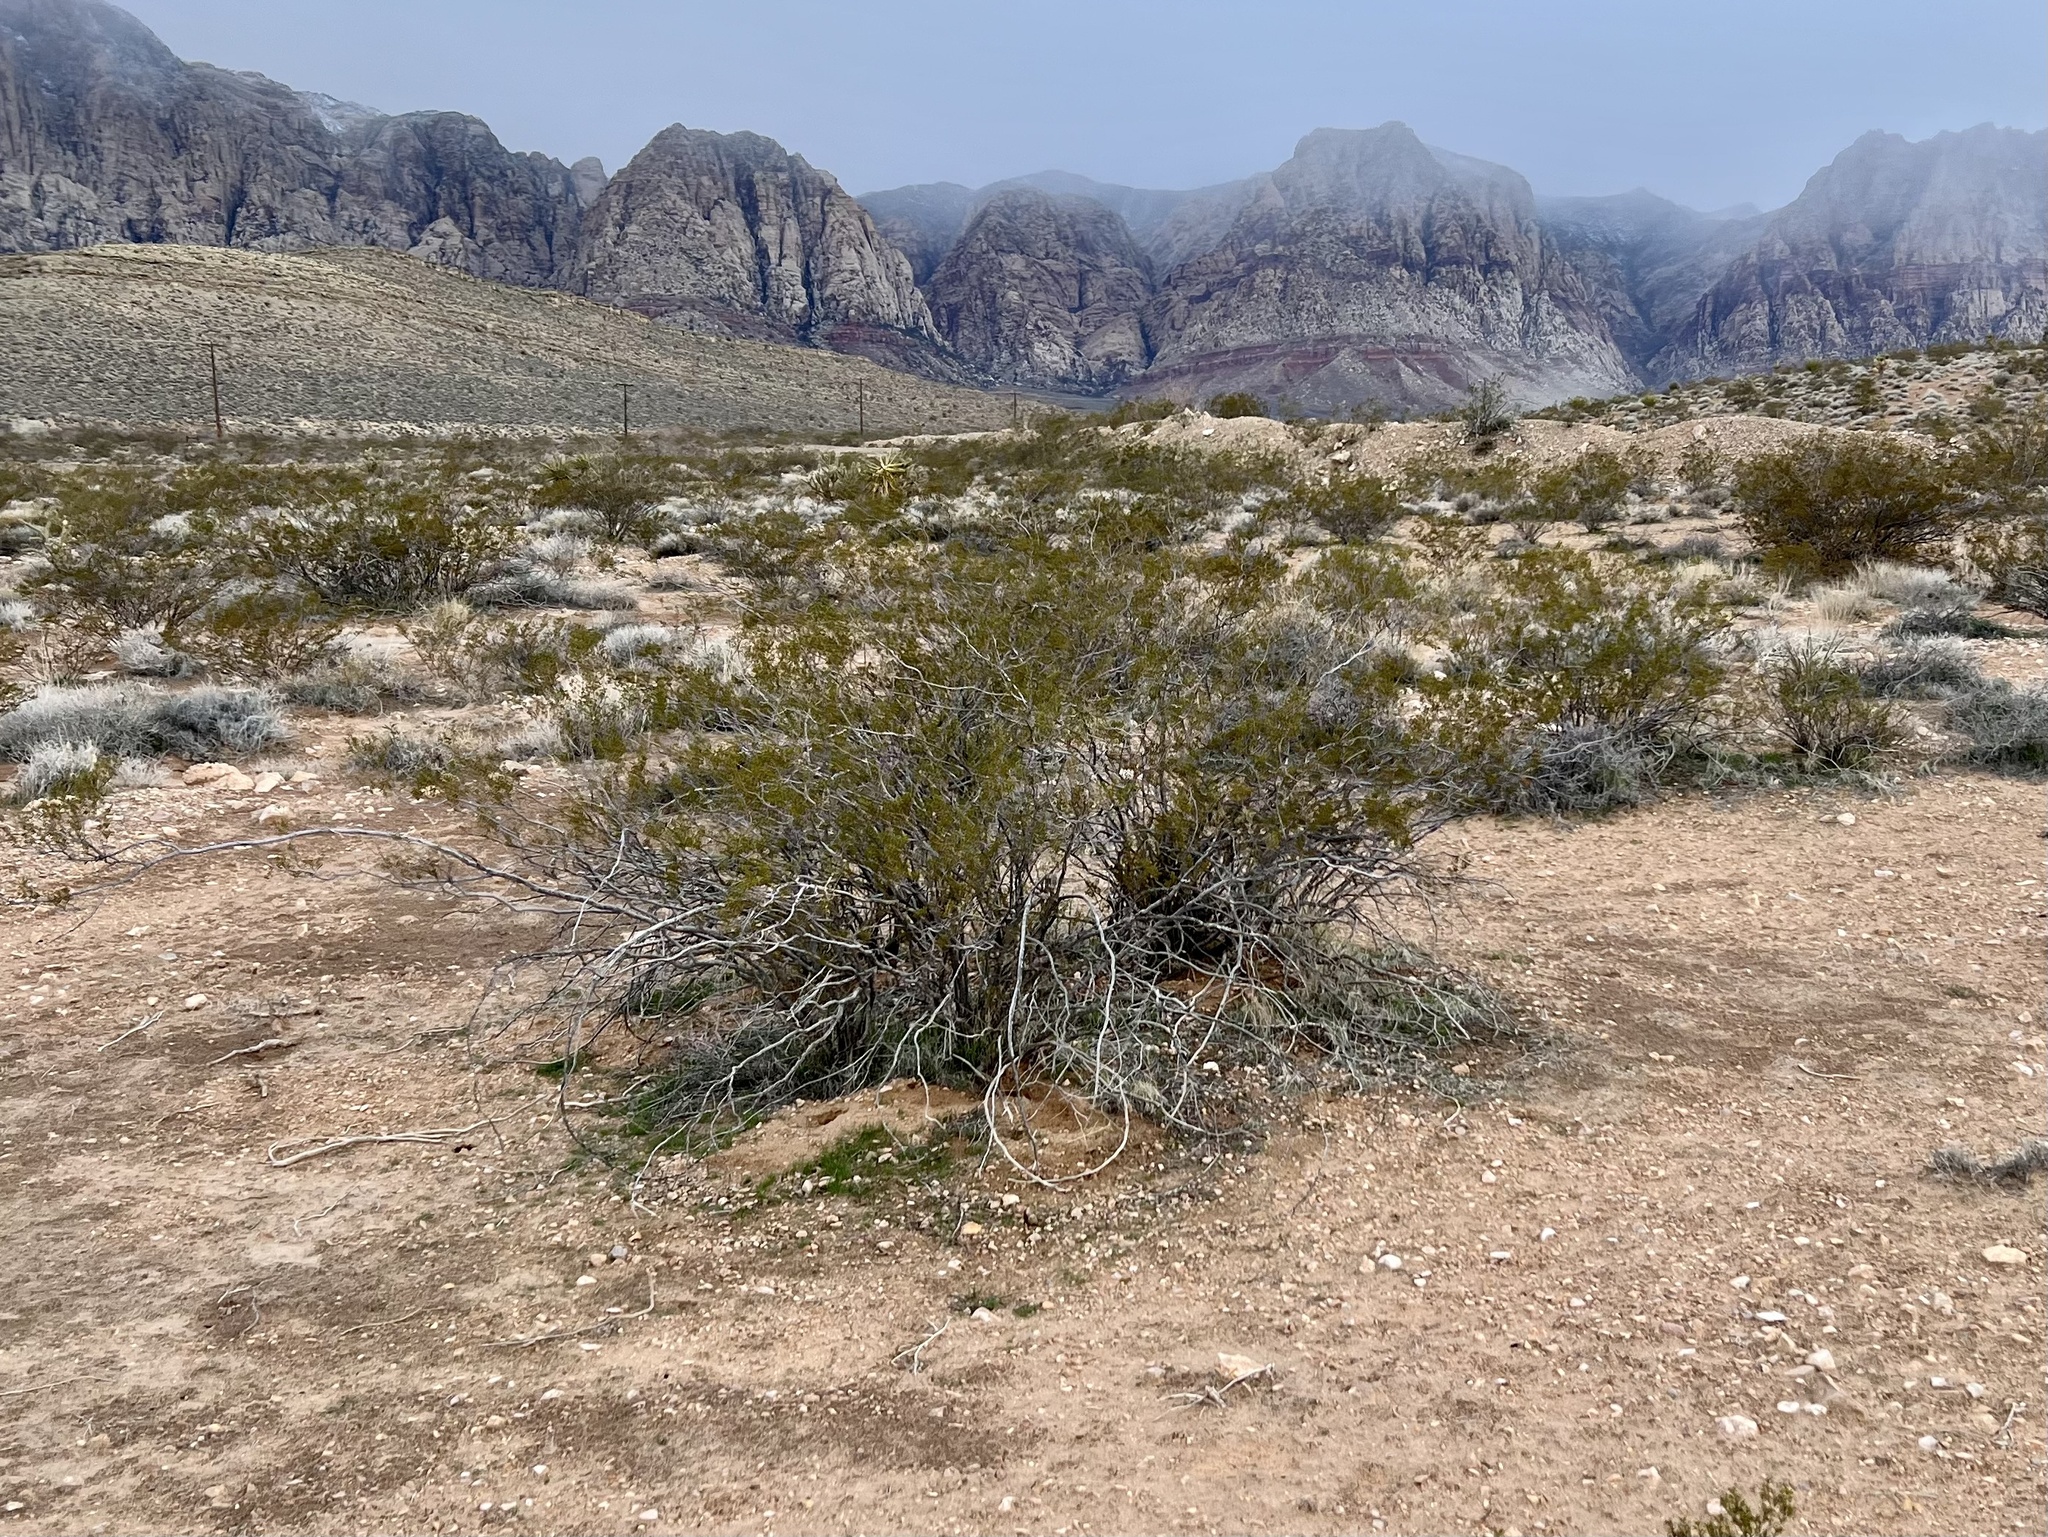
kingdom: Plantae
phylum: Tracheophyta
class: Magnoliopsida
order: Zygophyllales
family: Zygophyllaceae
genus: Larrea
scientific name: Larrea tridentata
